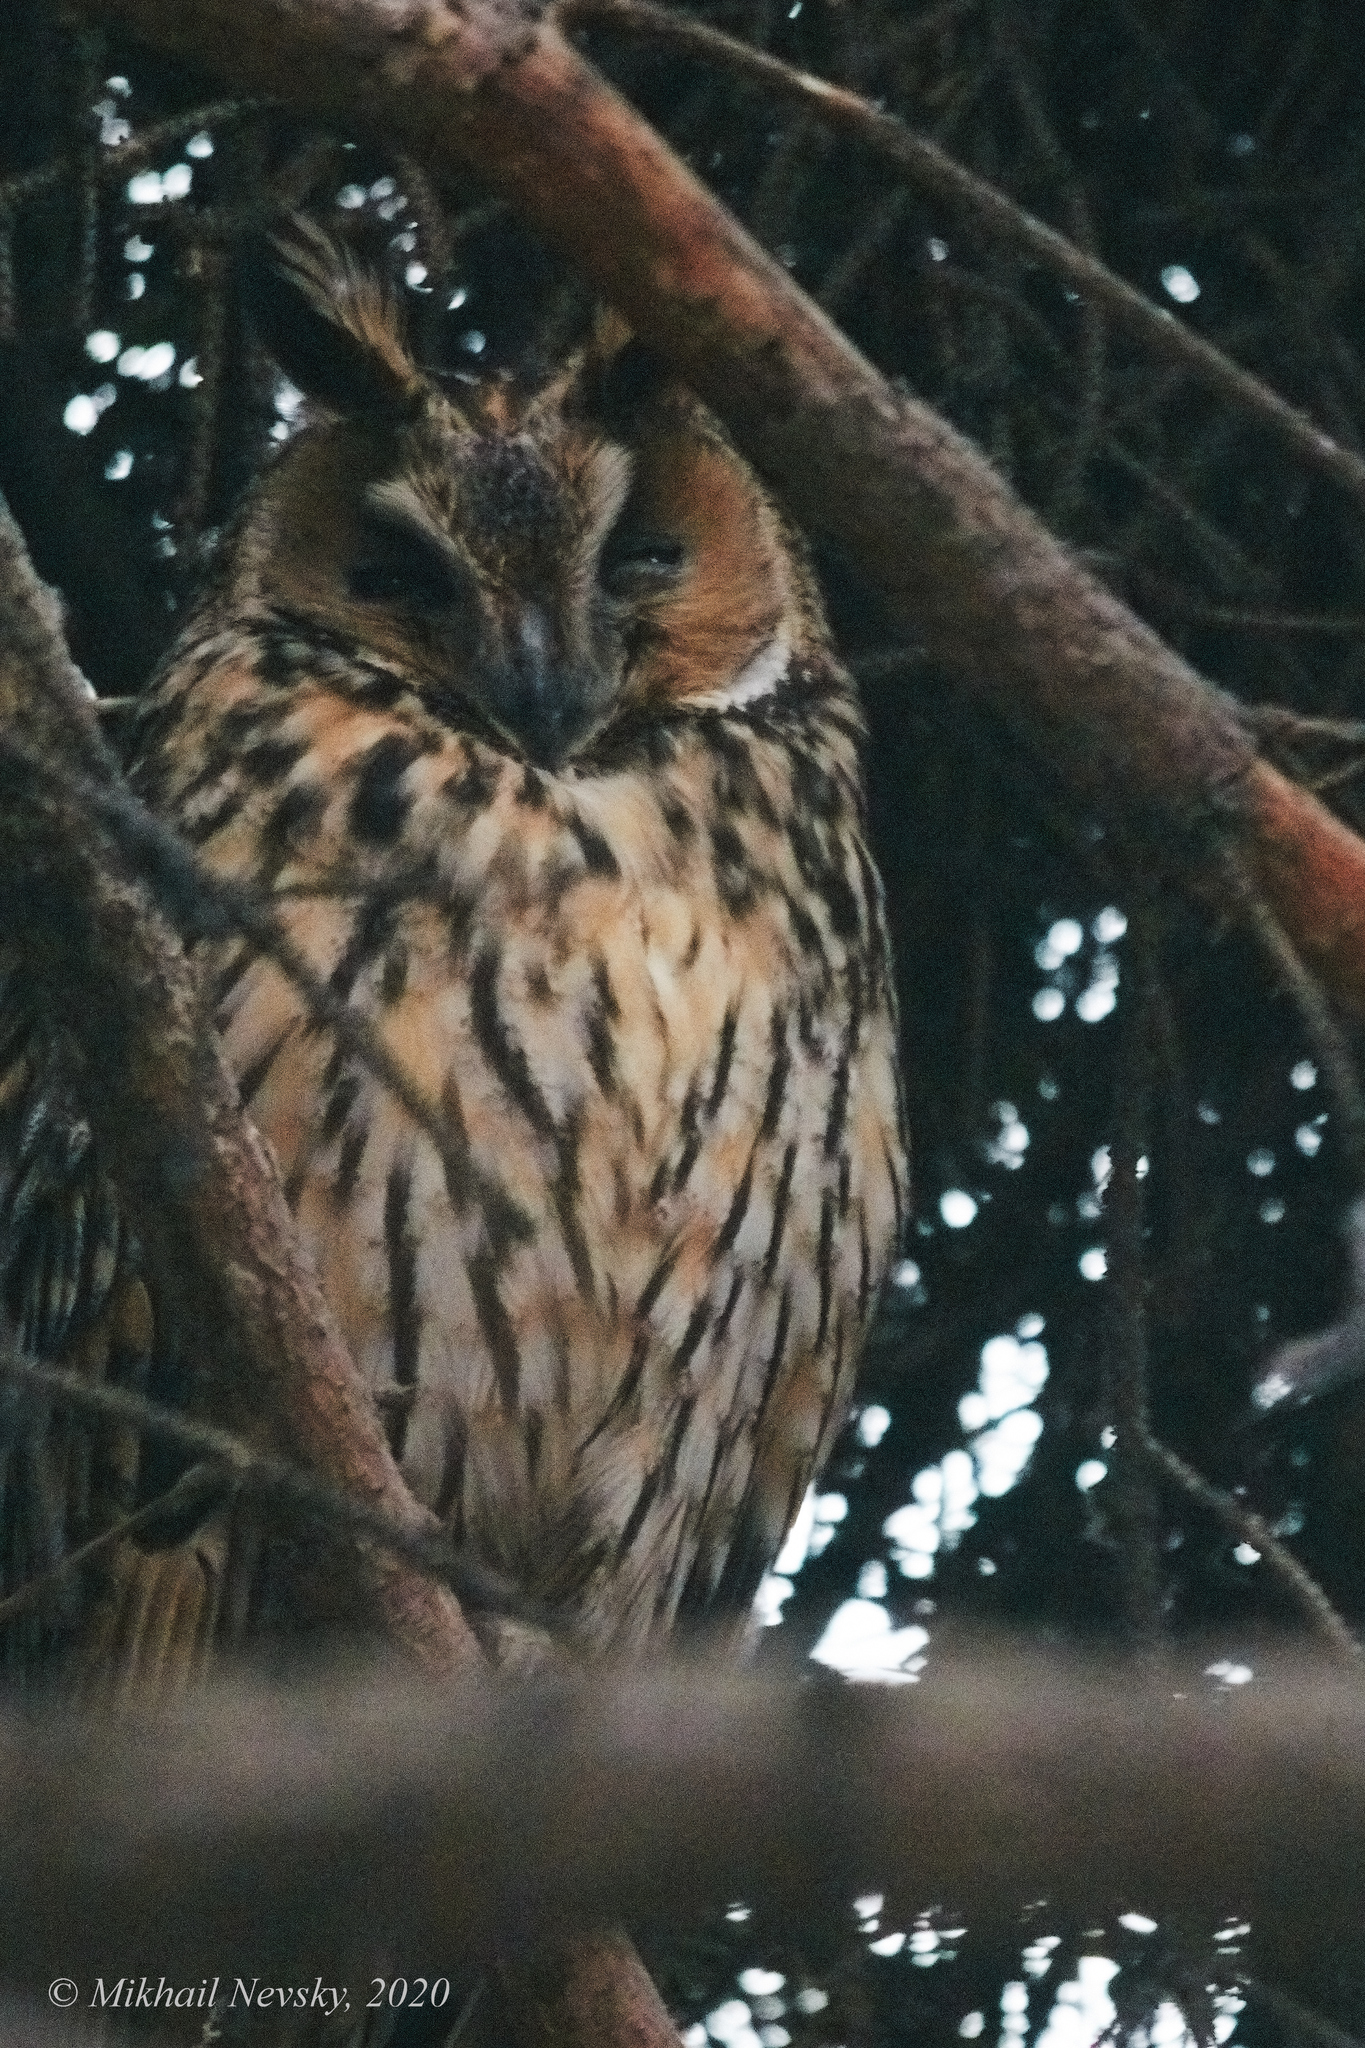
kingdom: Animalia
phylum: Chordata
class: Aves
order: Strigiformes
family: Strigidae
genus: Asio
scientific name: Asio otus
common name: Long-eared owl
